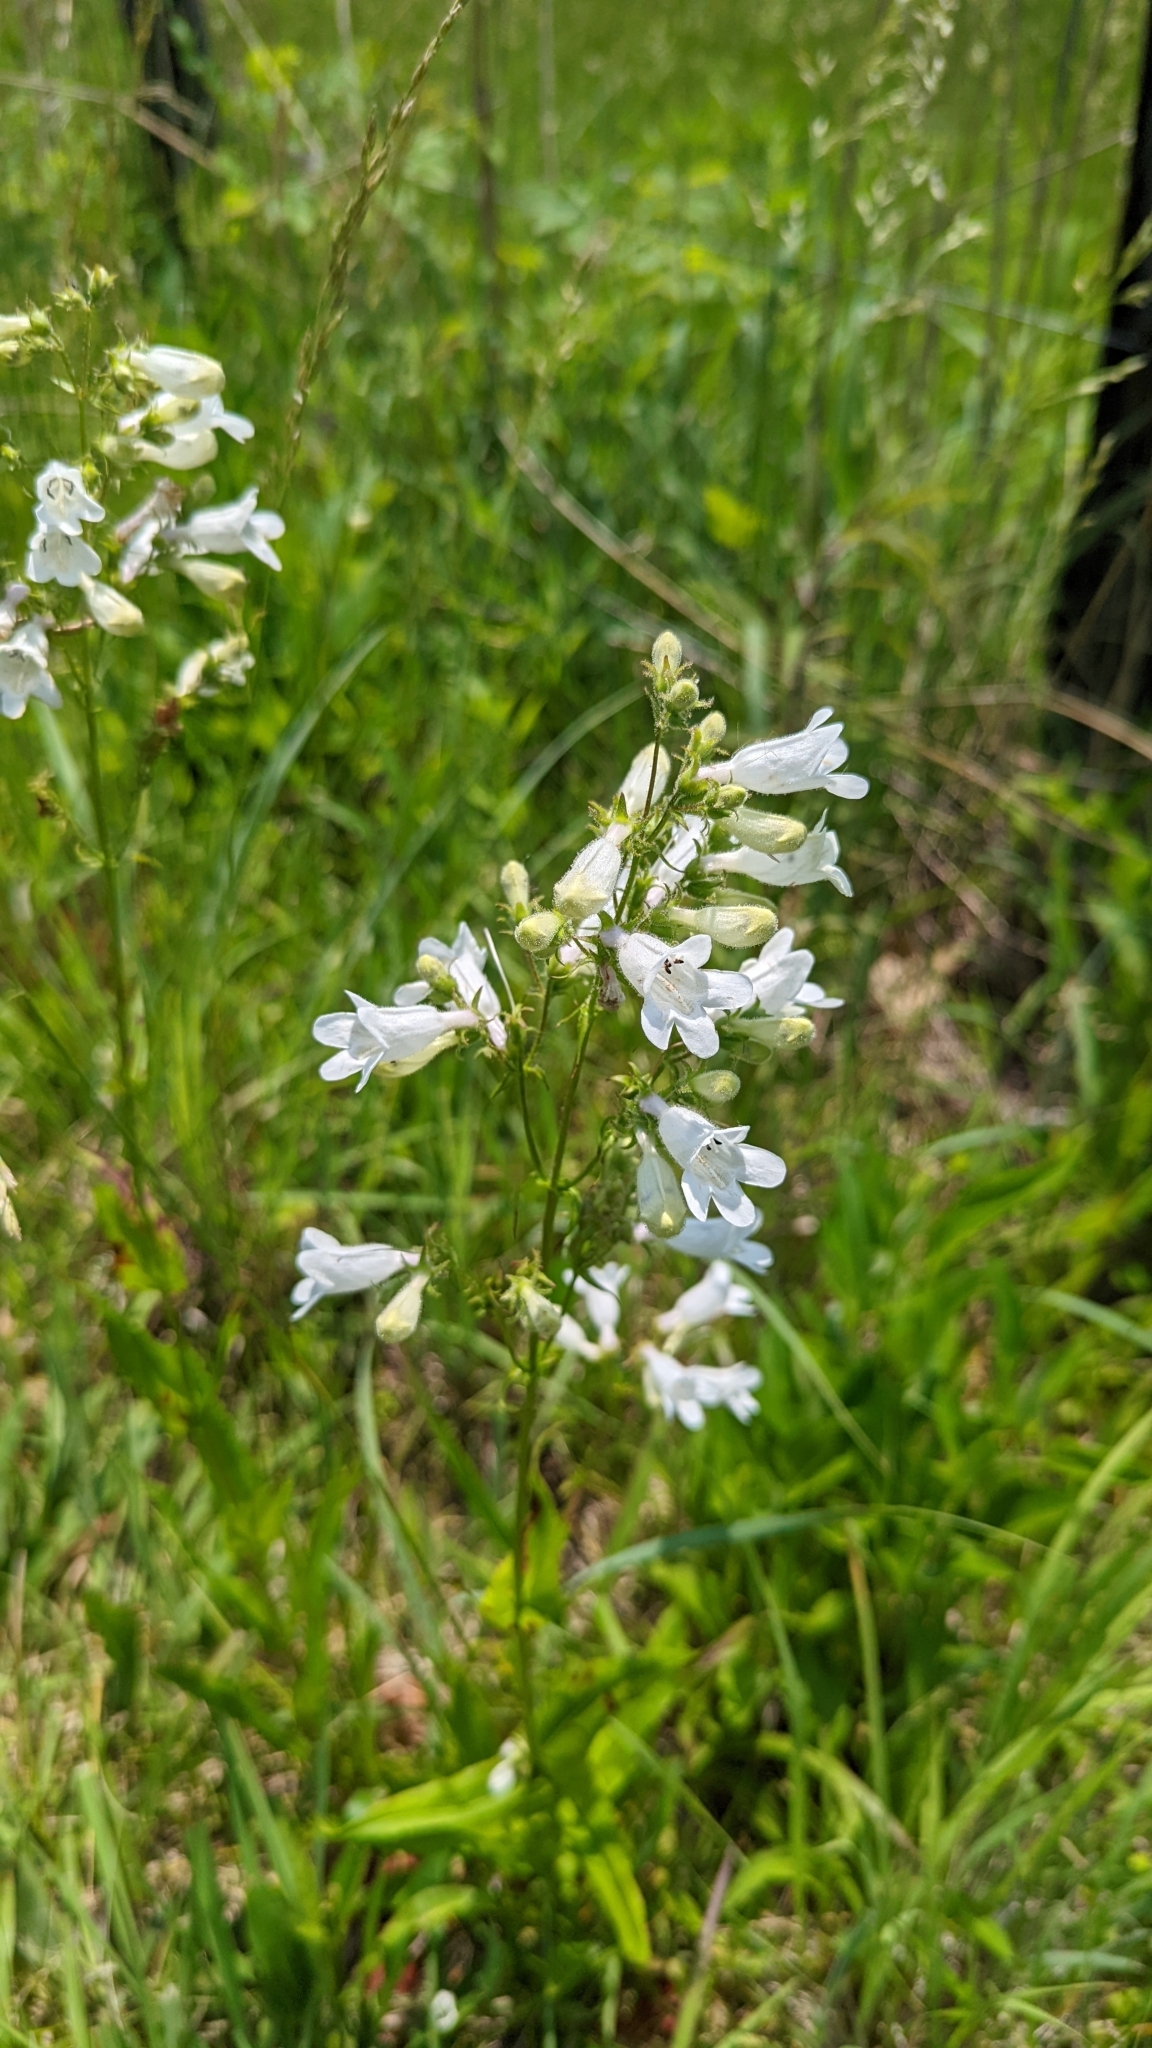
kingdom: Plantae
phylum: Tracheophyta
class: Magnoliopsida
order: Lamiales
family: Plantaginaceae
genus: Penstemon
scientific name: Penstemon digitalis
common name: Foxglove beardtongue
